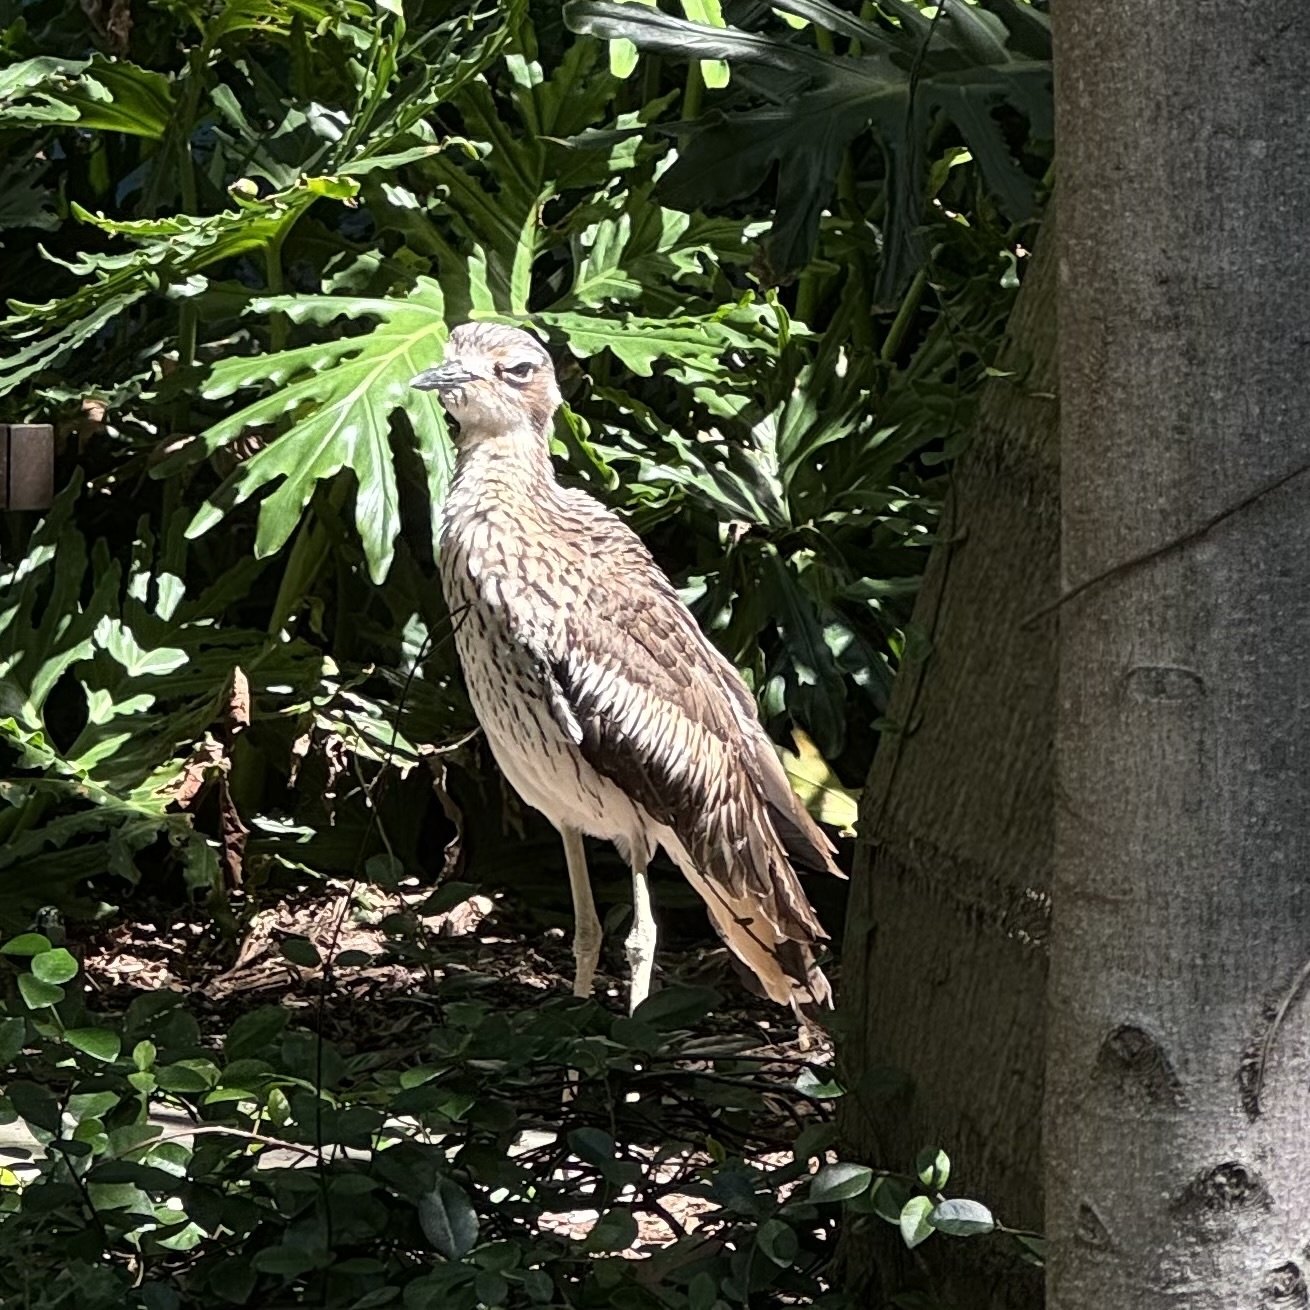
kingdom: Animalia
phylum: Chordata
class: Aves
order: Charadriiformes
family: Burhinidae
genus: Burhinus
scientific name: Burhinus grallarius
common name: Bush stone-curlew
